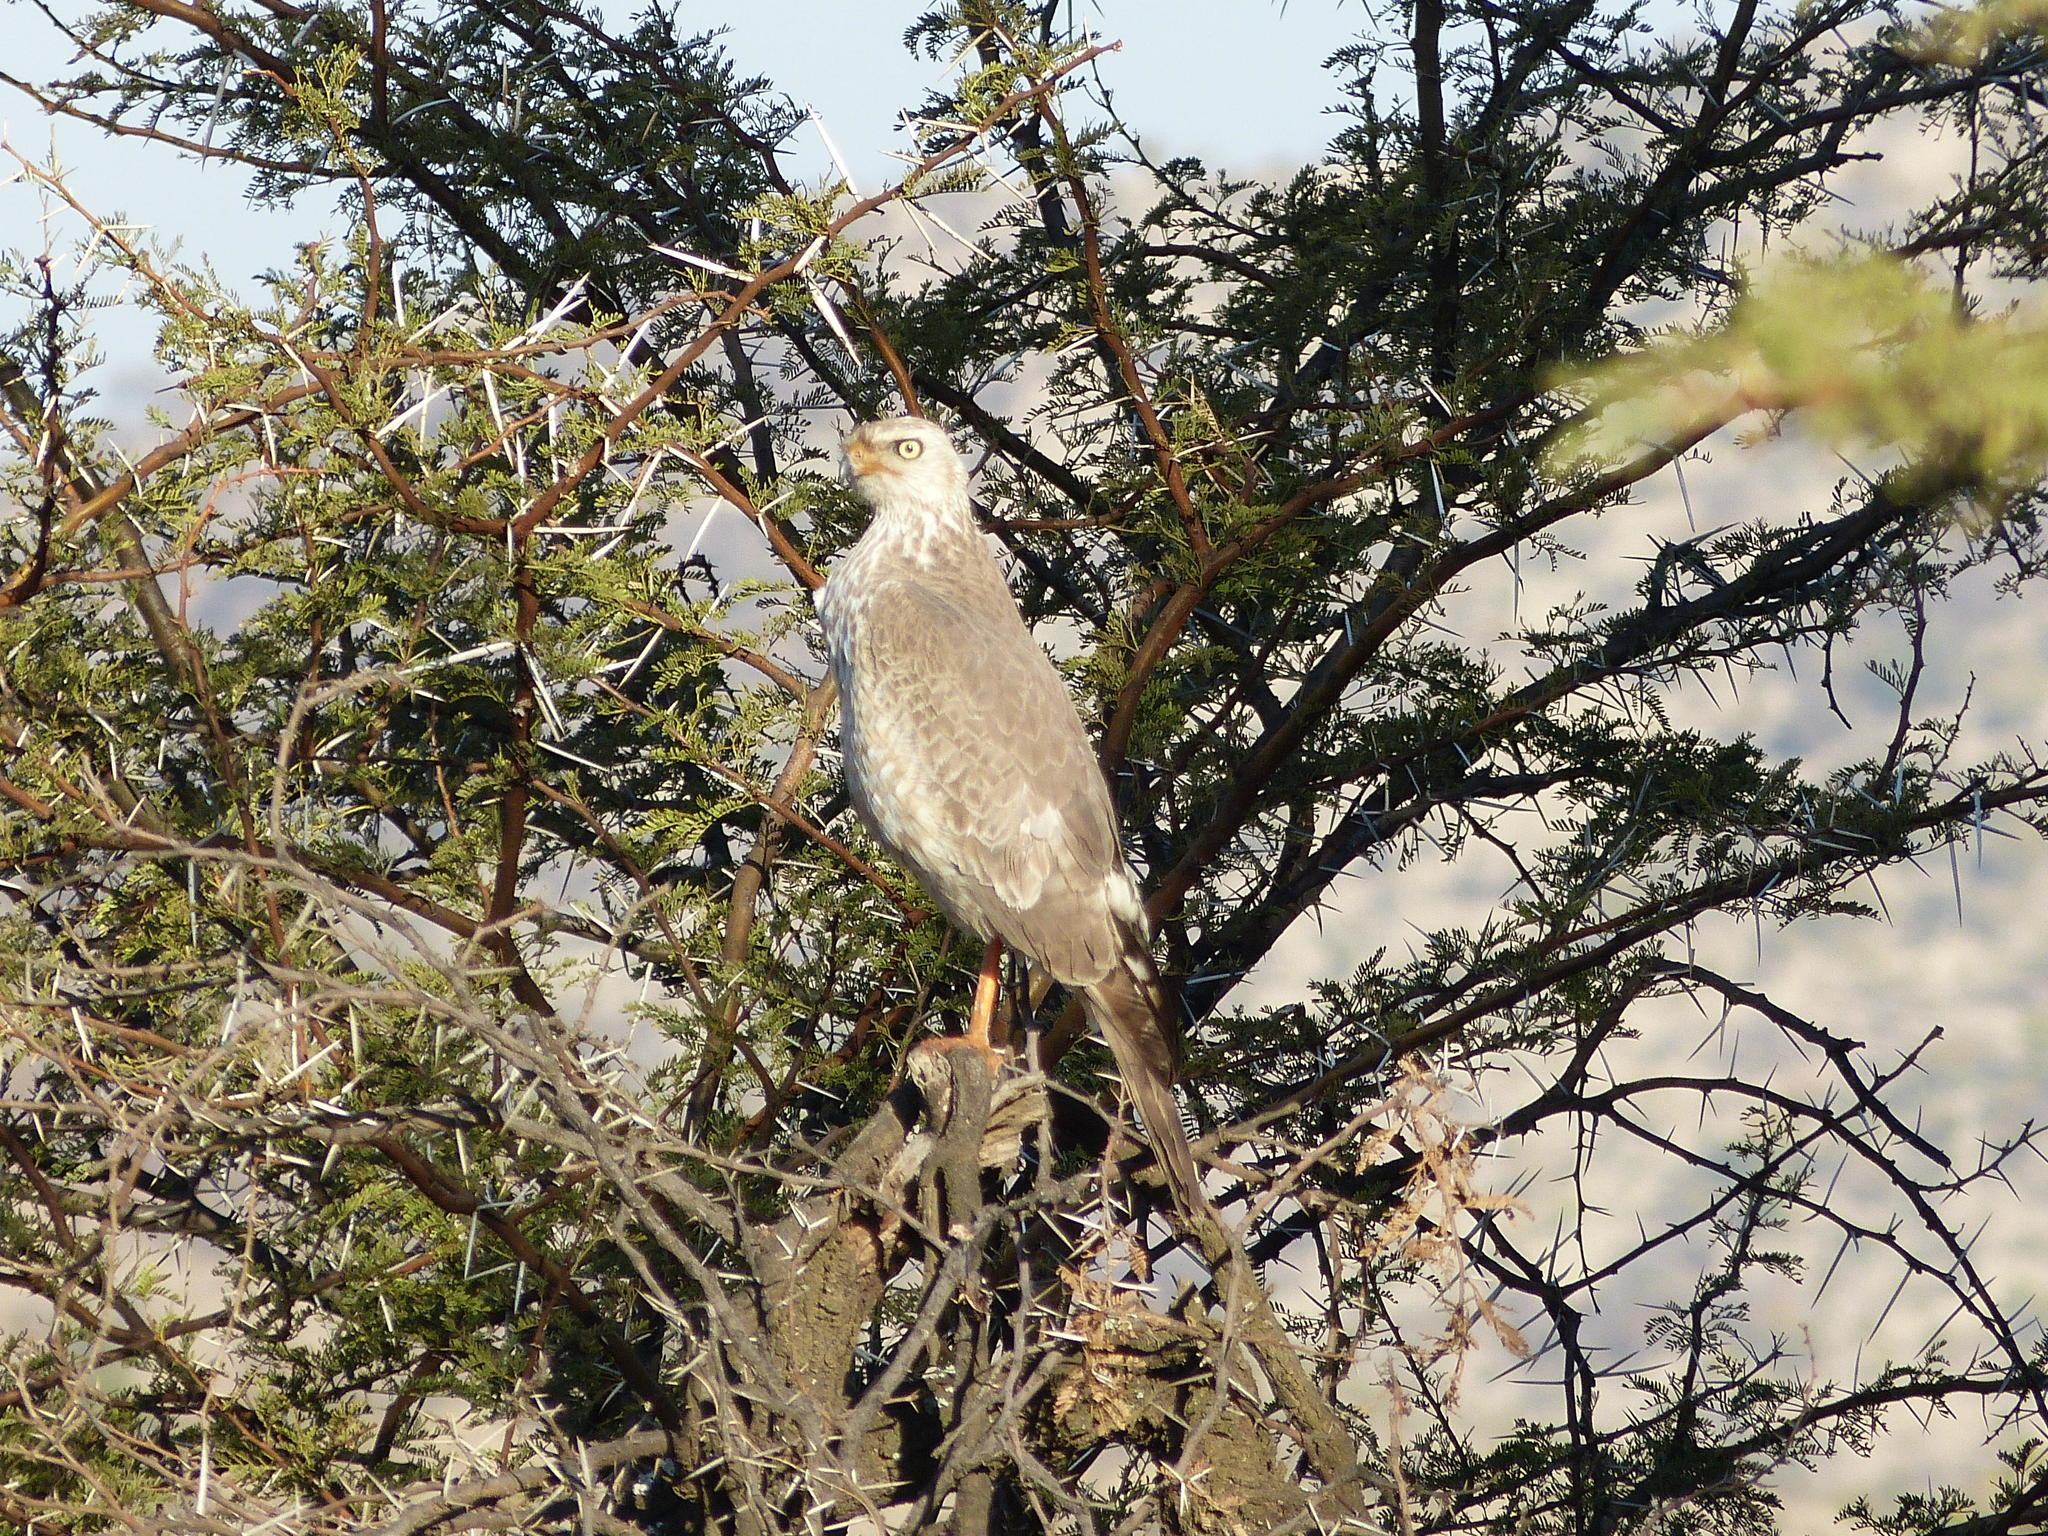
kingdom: Animalia
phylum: Chordata
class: Aves
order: Accipitriformes
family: Accipitridae
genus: Melierax
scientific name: Melierax canorus
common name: Pale chanting-goshawk
